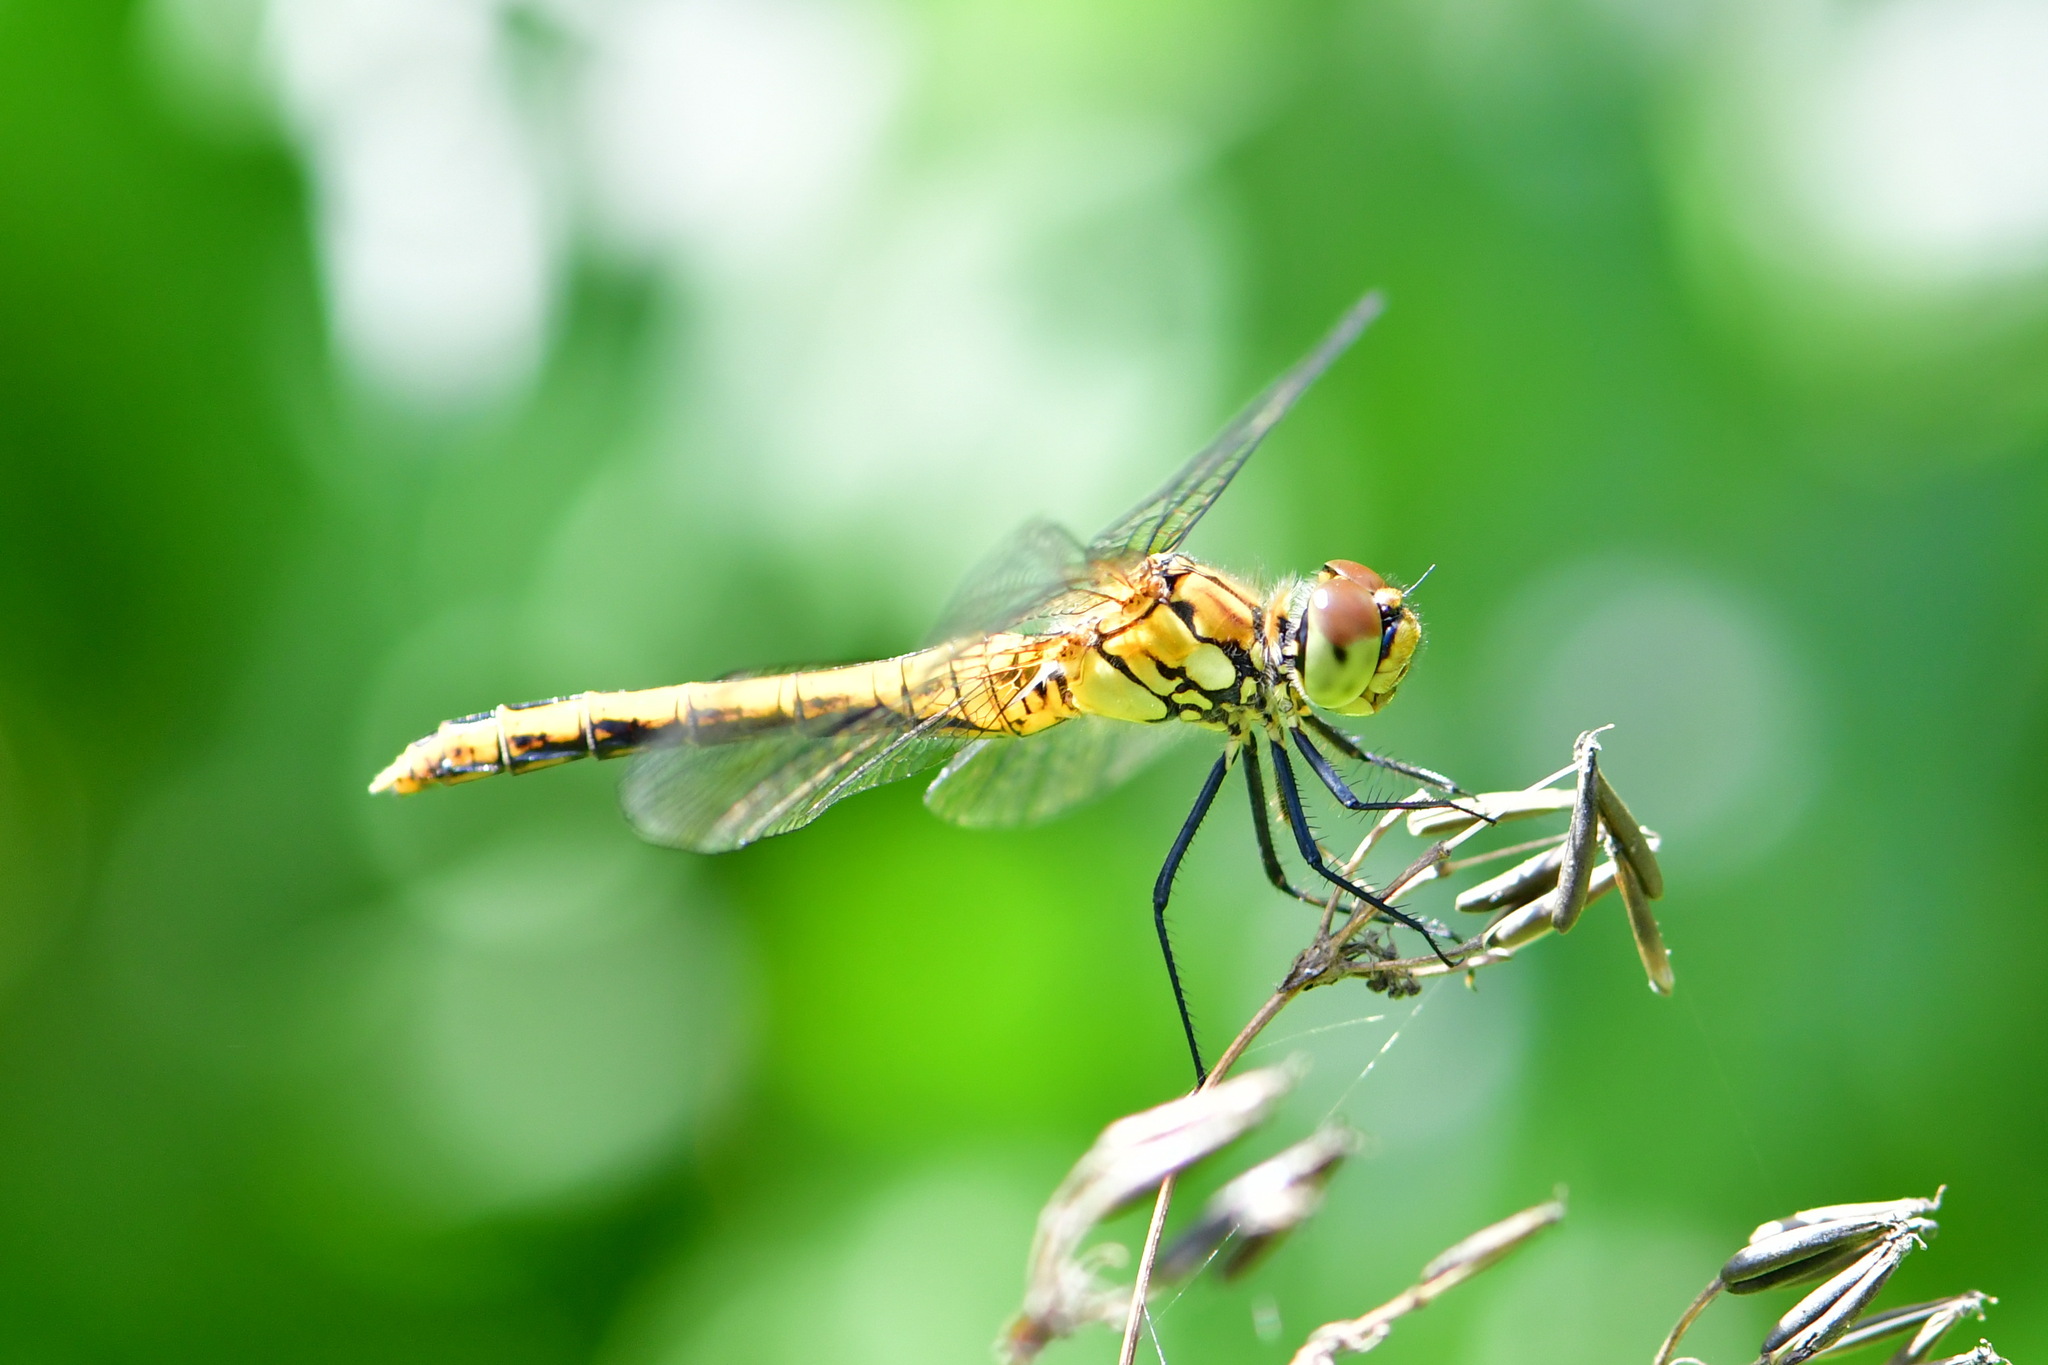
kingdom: Animalia
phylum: Arthropoda
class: Insecta
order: Odonata
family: Libellulidae
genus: Sympetrum
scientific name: Sympetrum sanguineum
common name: Ruddy darter
